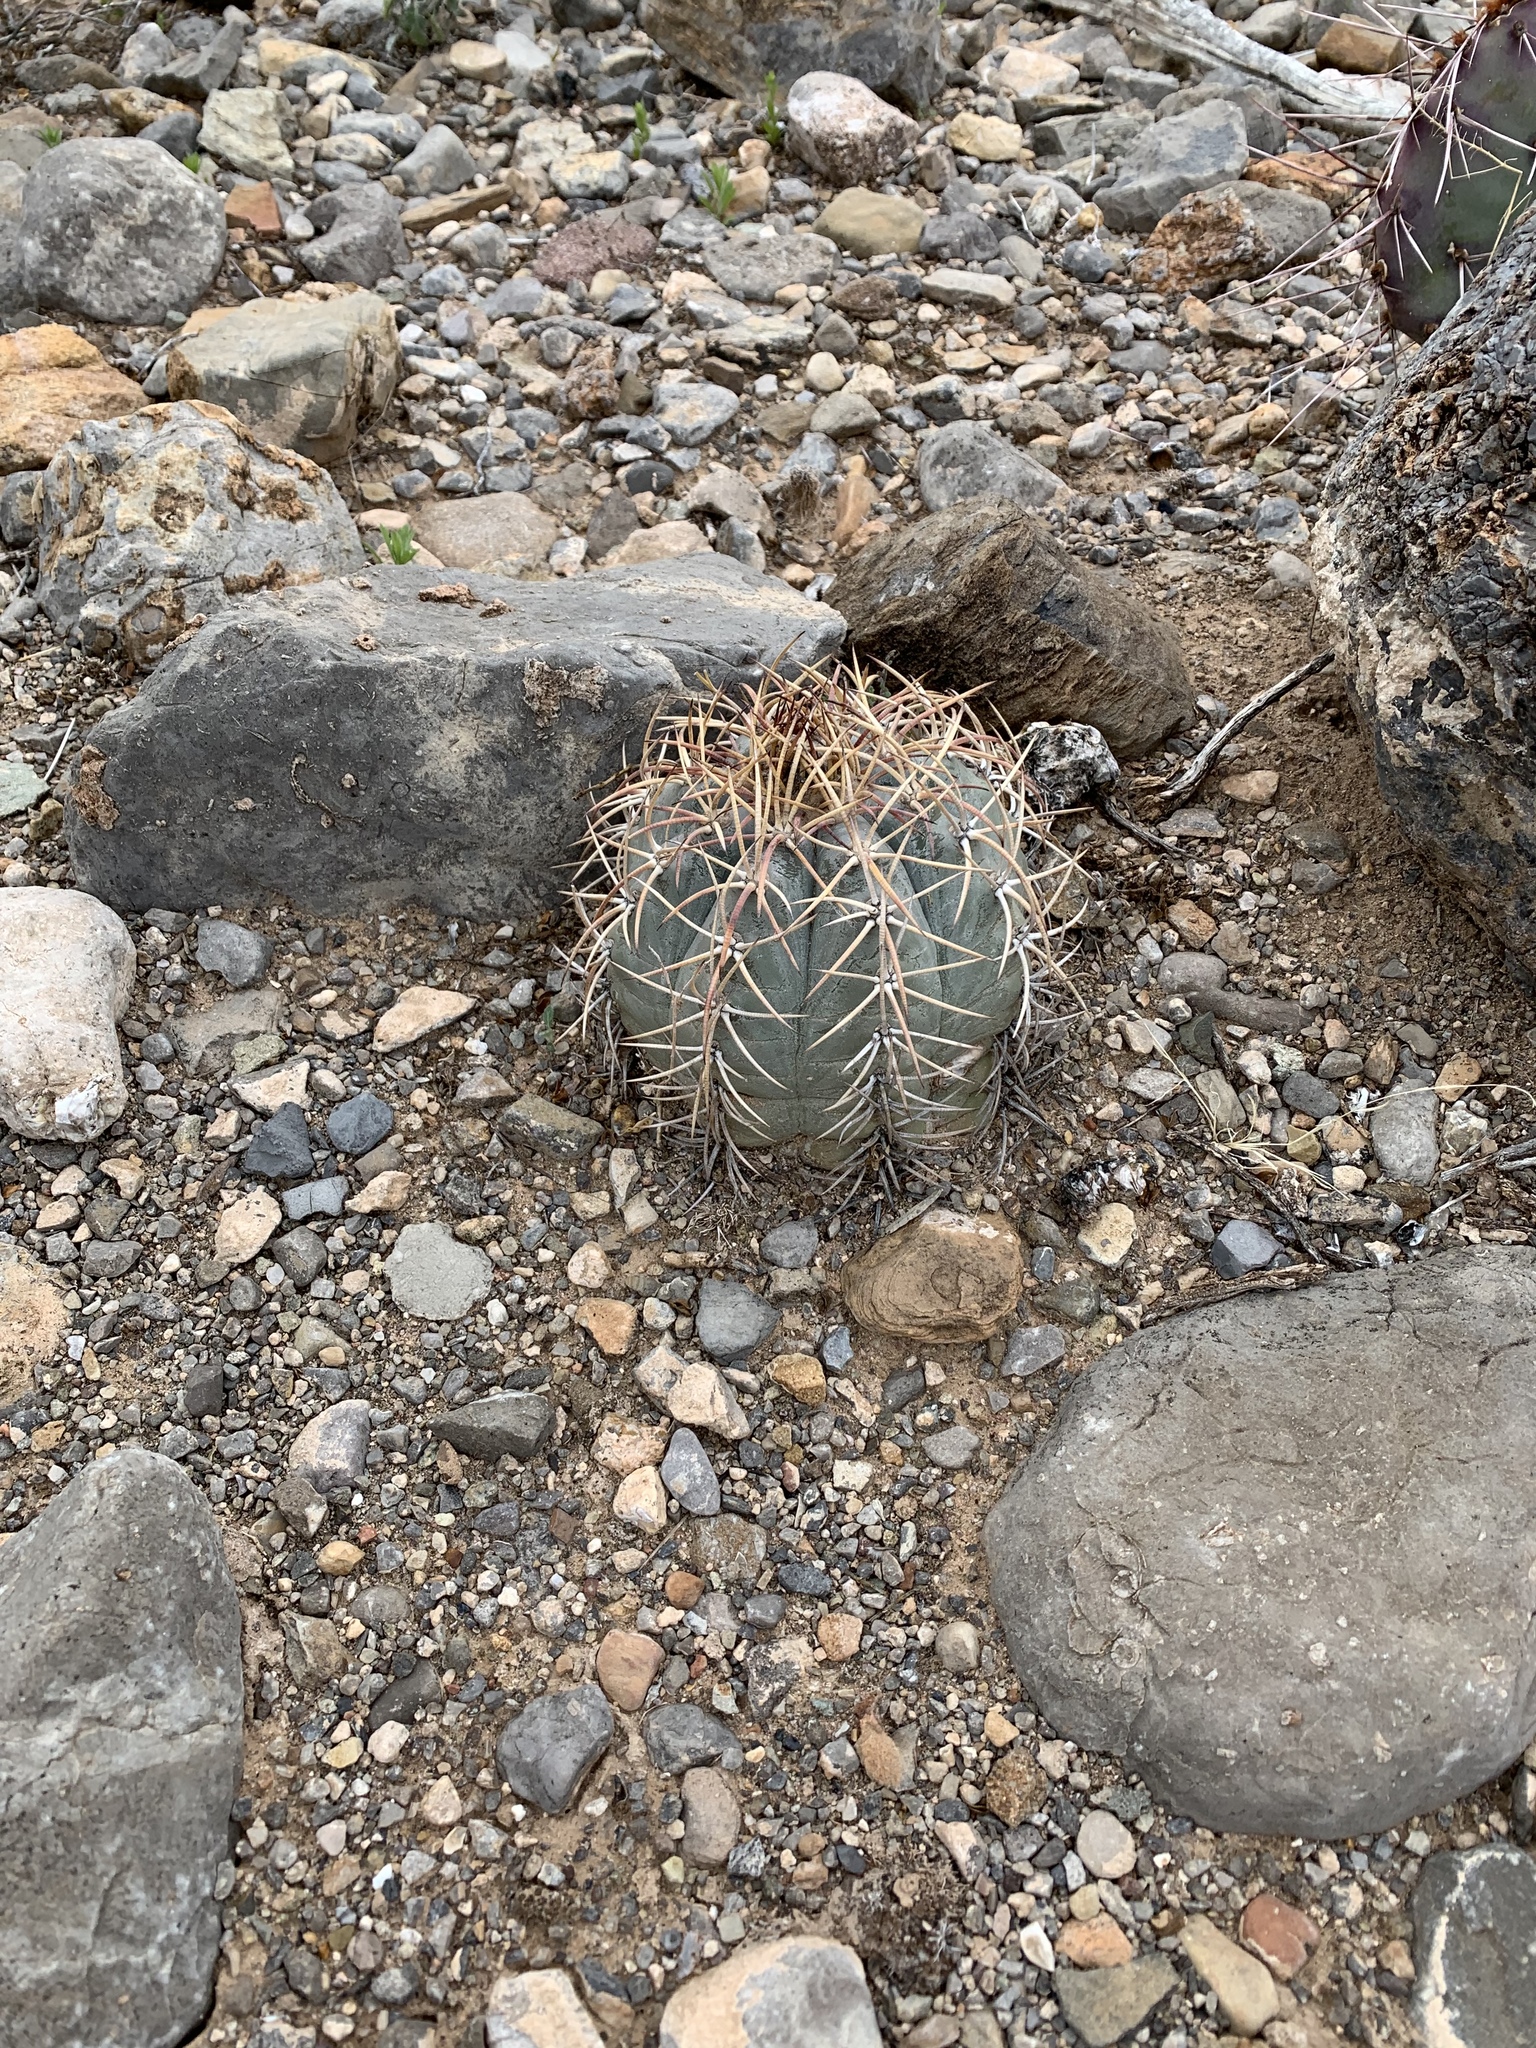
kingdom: Plantae
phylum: Tracheophyta
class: Magnoliopsida
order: Caryophyllales
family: Cactaceae
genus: Echinocactus
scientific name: Echinocactus horizonthalonius
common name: Devilshead
